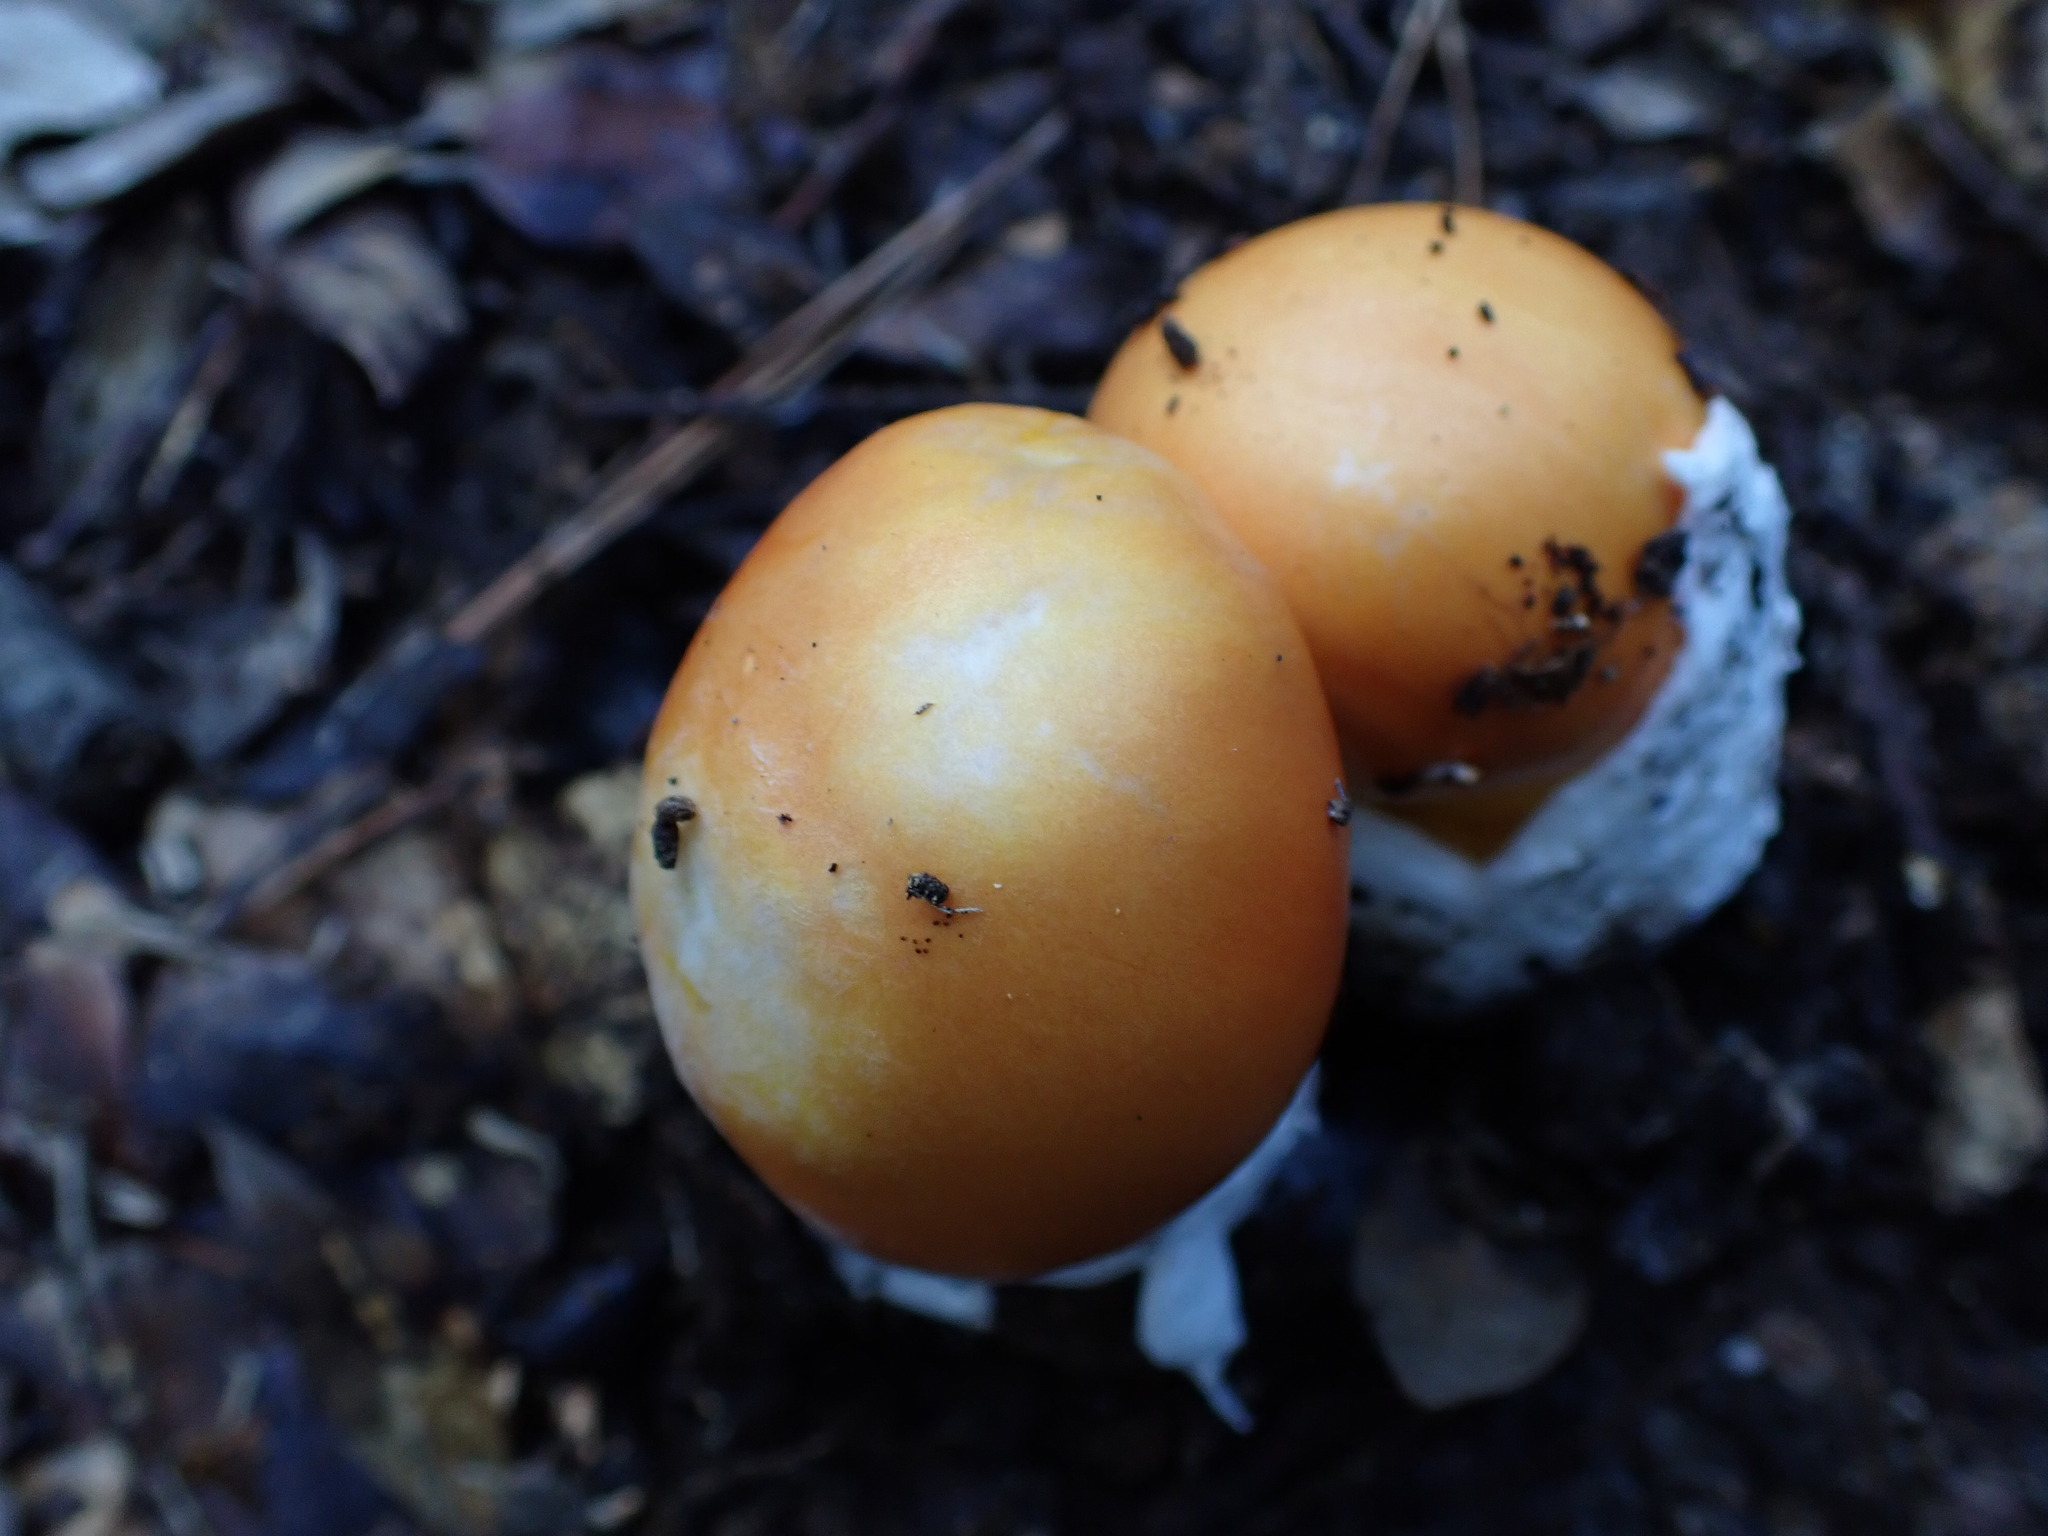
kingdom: Fungi
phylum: Basidiomycota
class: Agaricomycetes
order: Agaricales
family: Amanitaceae
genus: Amanita
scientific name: Amanita caesarea
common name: Caesar's amanita
